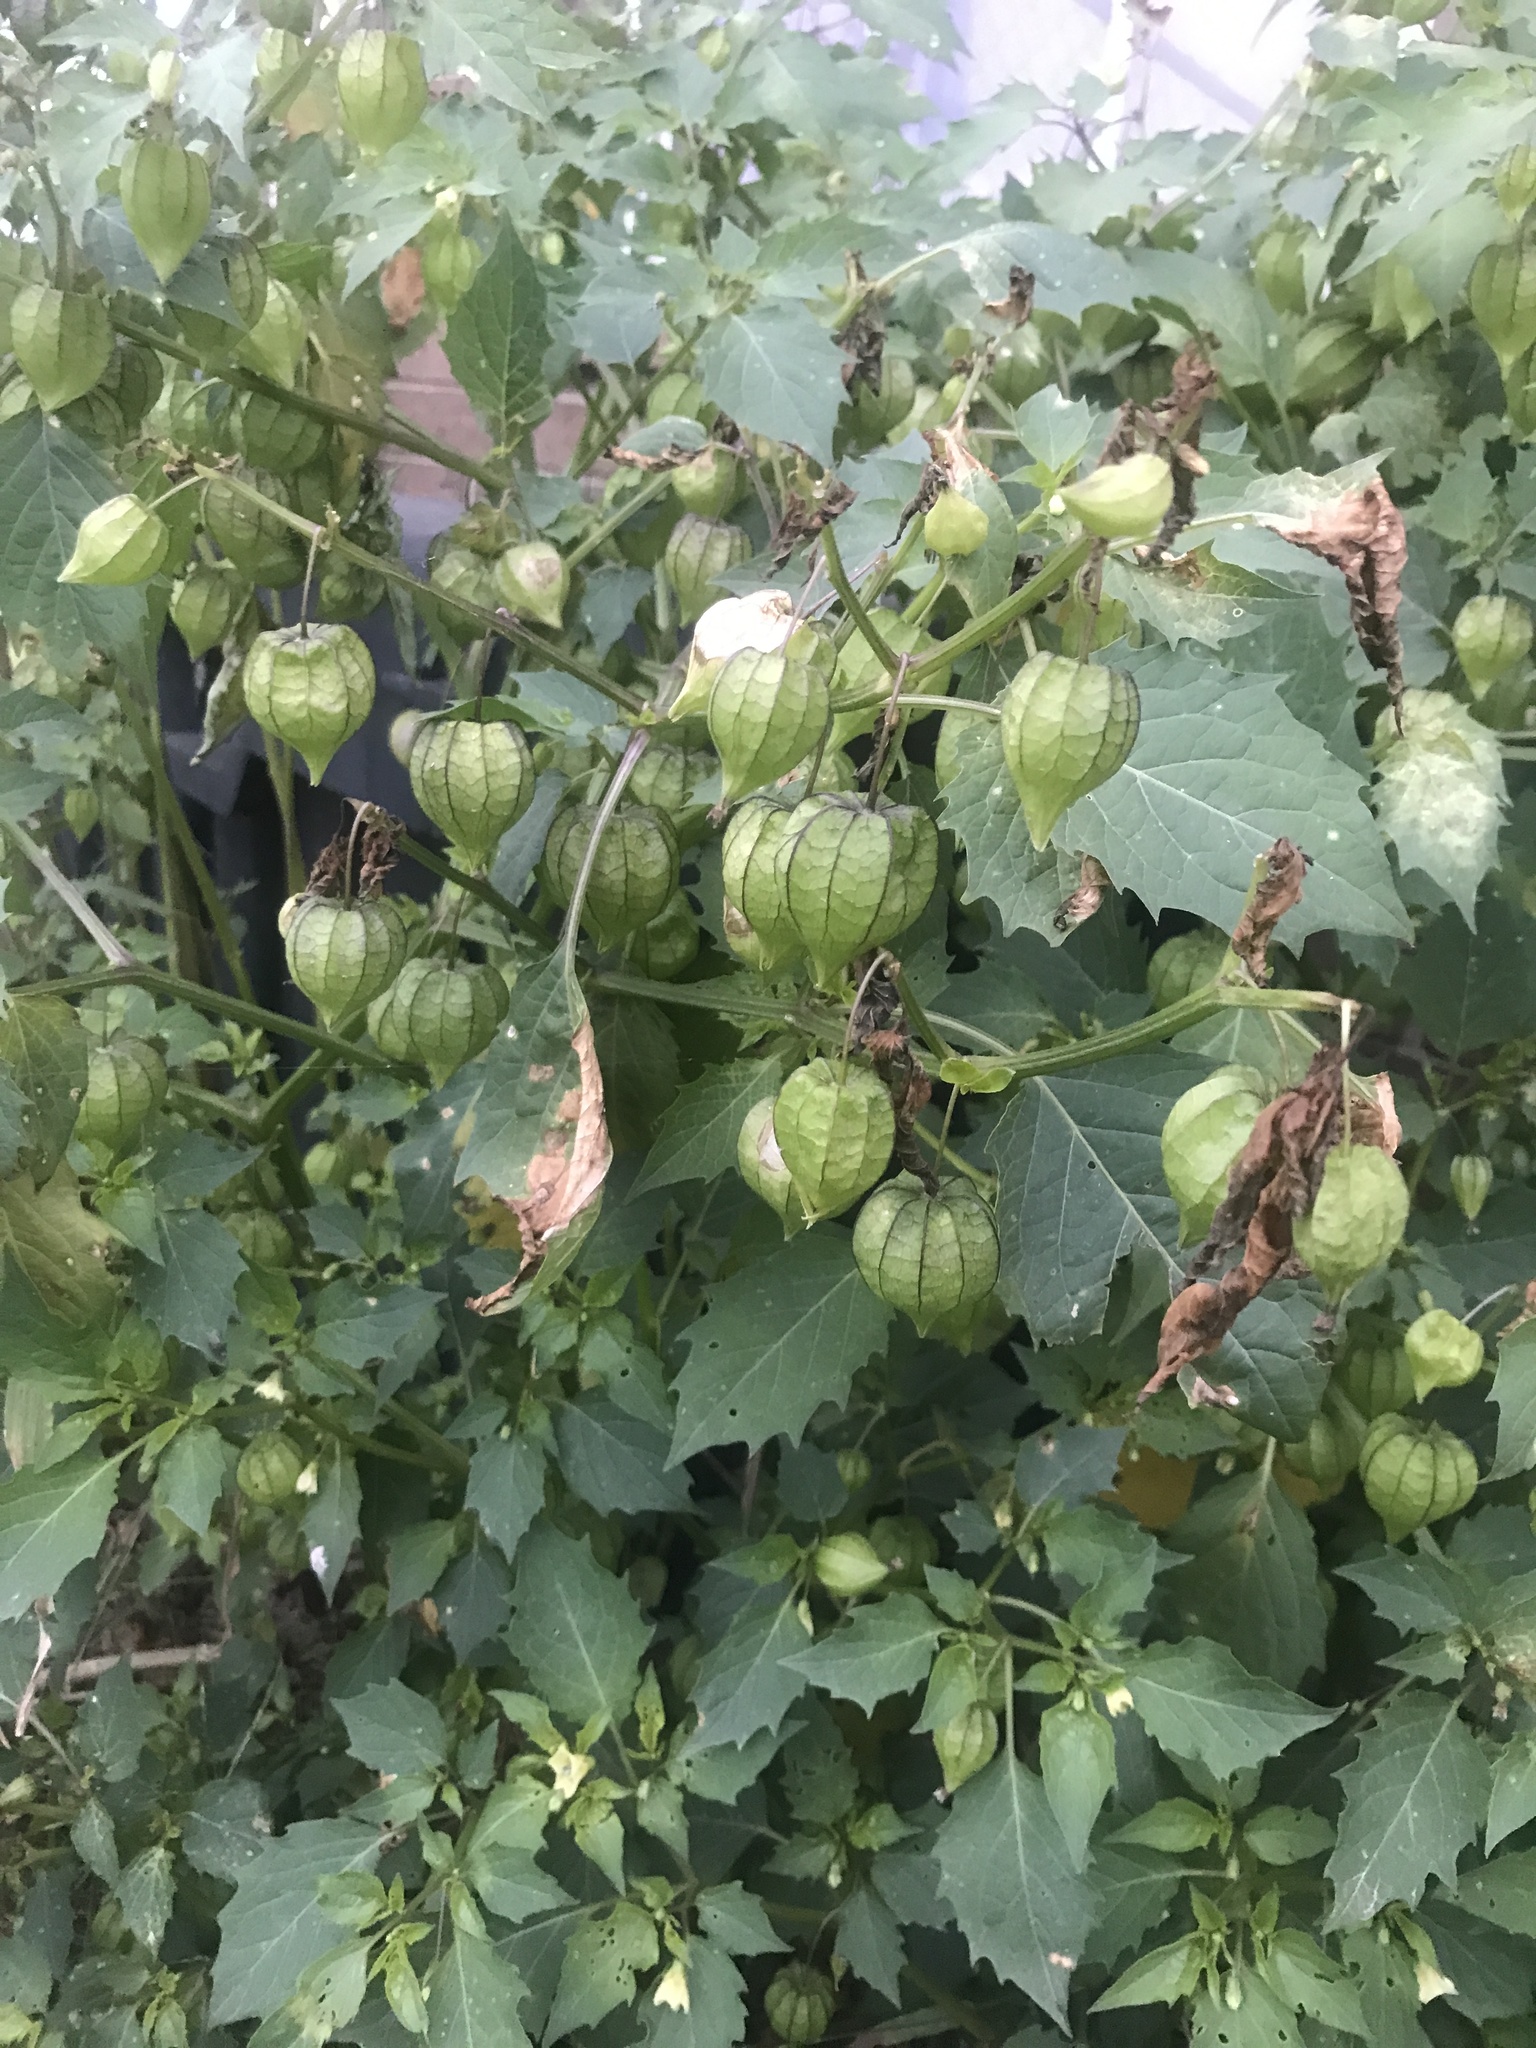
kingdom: Plantae
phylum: Tracheophyta
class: Magnoliopsida
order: Solanales
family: Solanaceae
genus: Physalis
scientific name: Physalis angulata
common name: Angular winter-cherry
